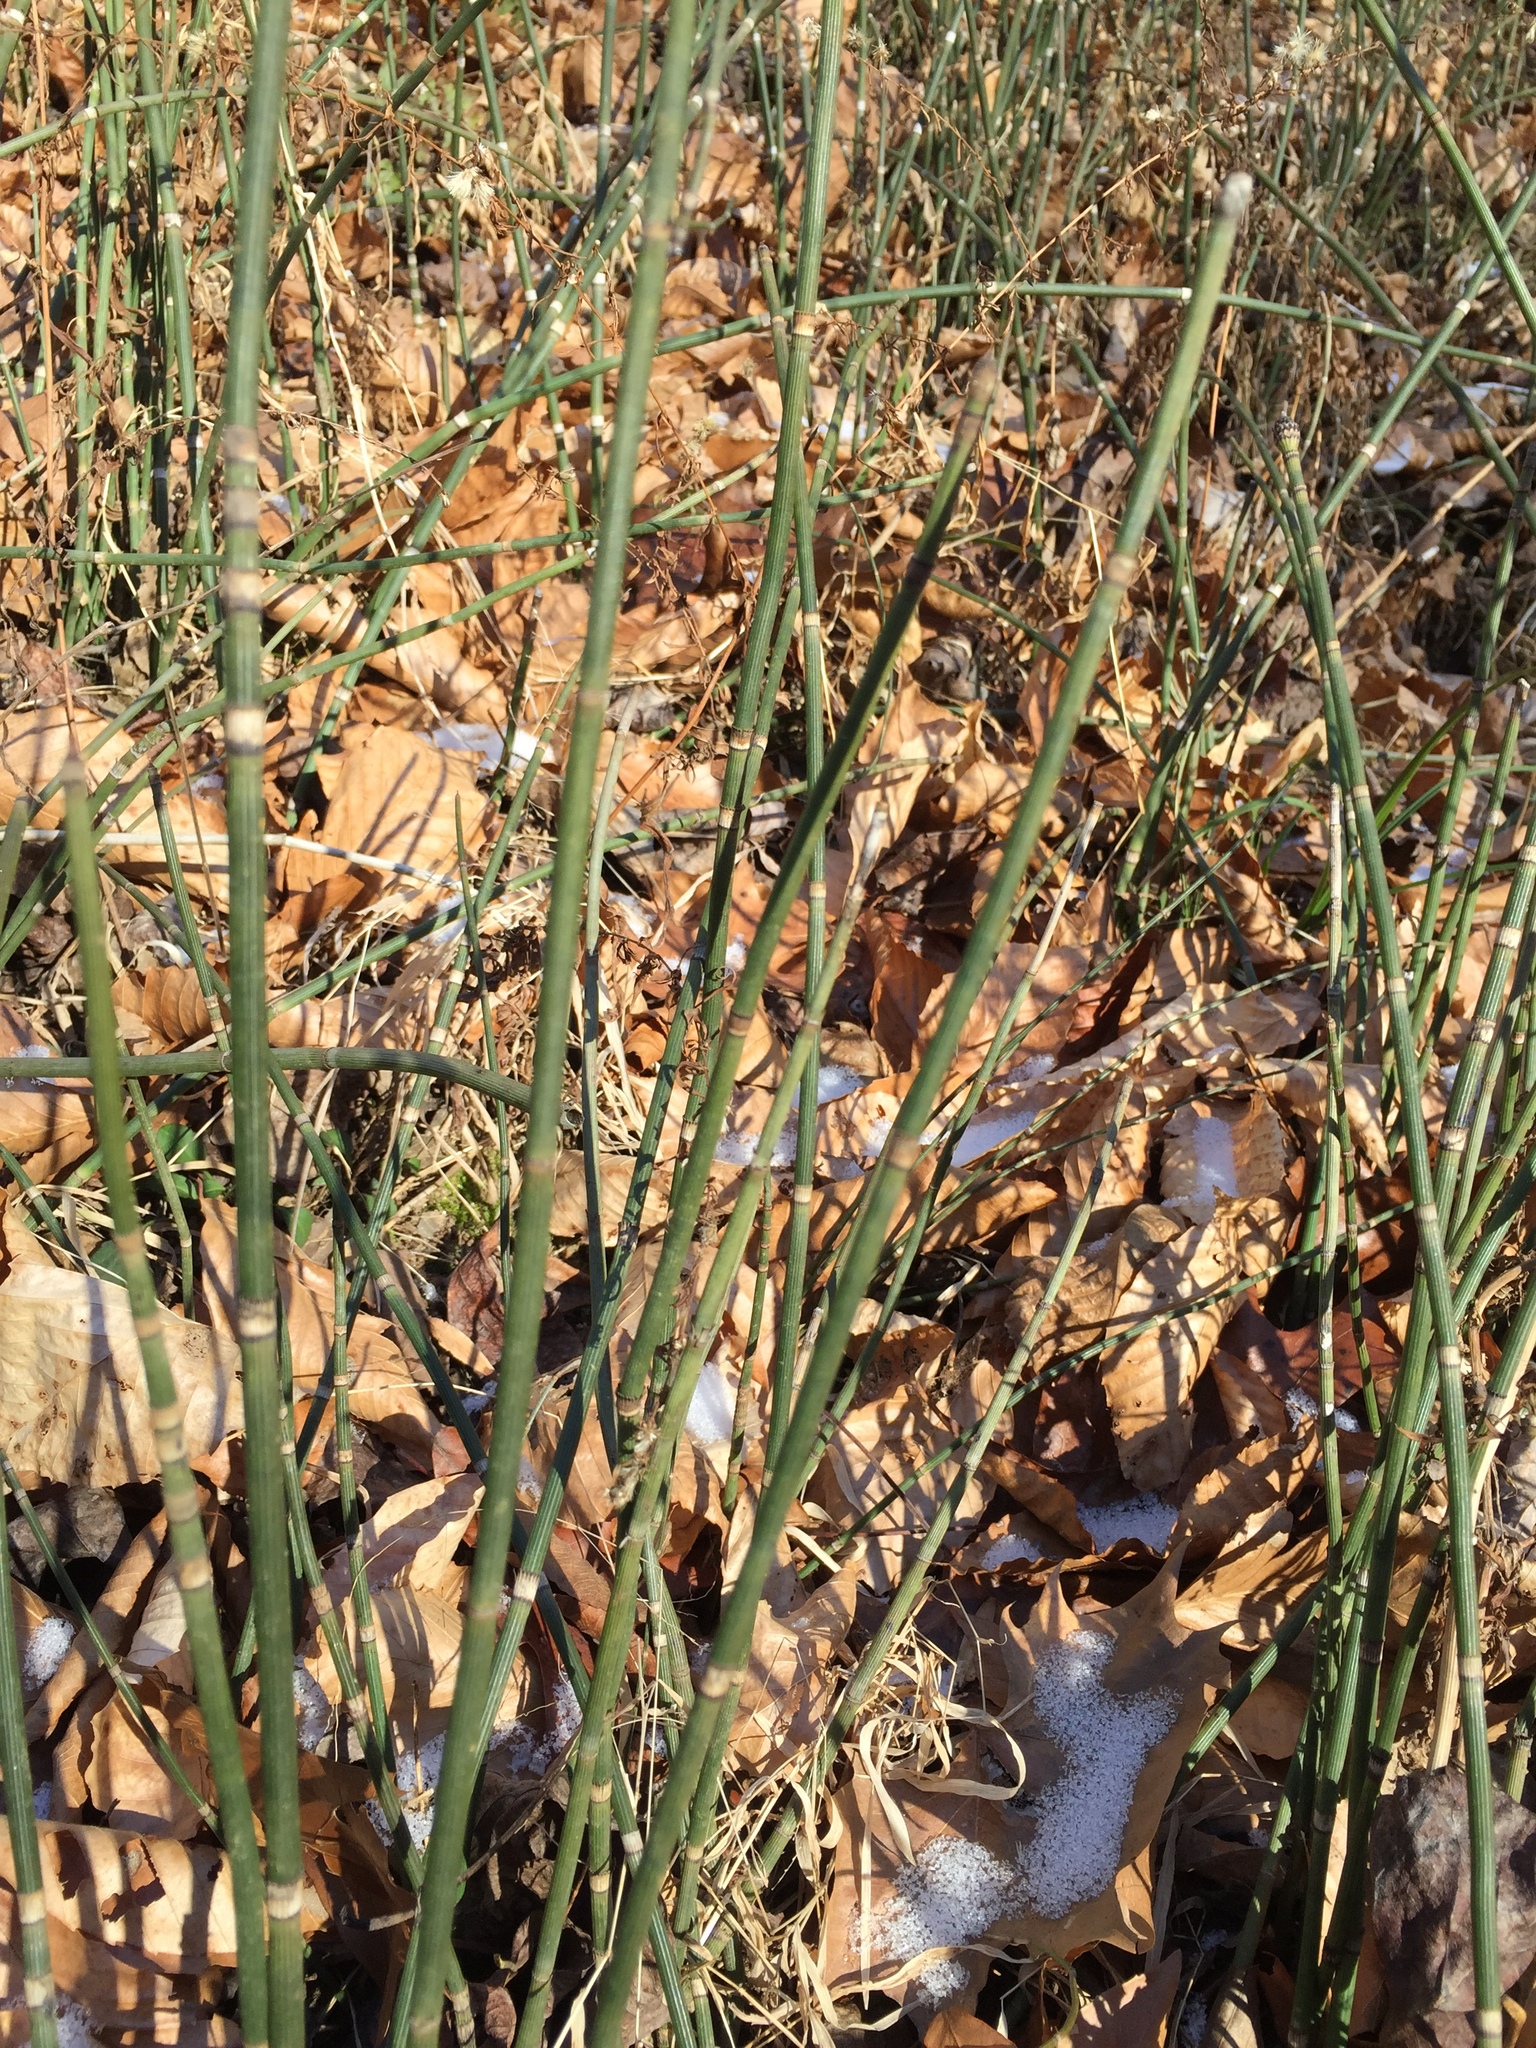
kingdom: Plantae
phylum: Tracheophyta
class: Polypodiopsida
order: Equisetales
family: Equisetaceae
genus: Equisetum
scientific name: Equisetum hyemale
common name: Rough horsetail
